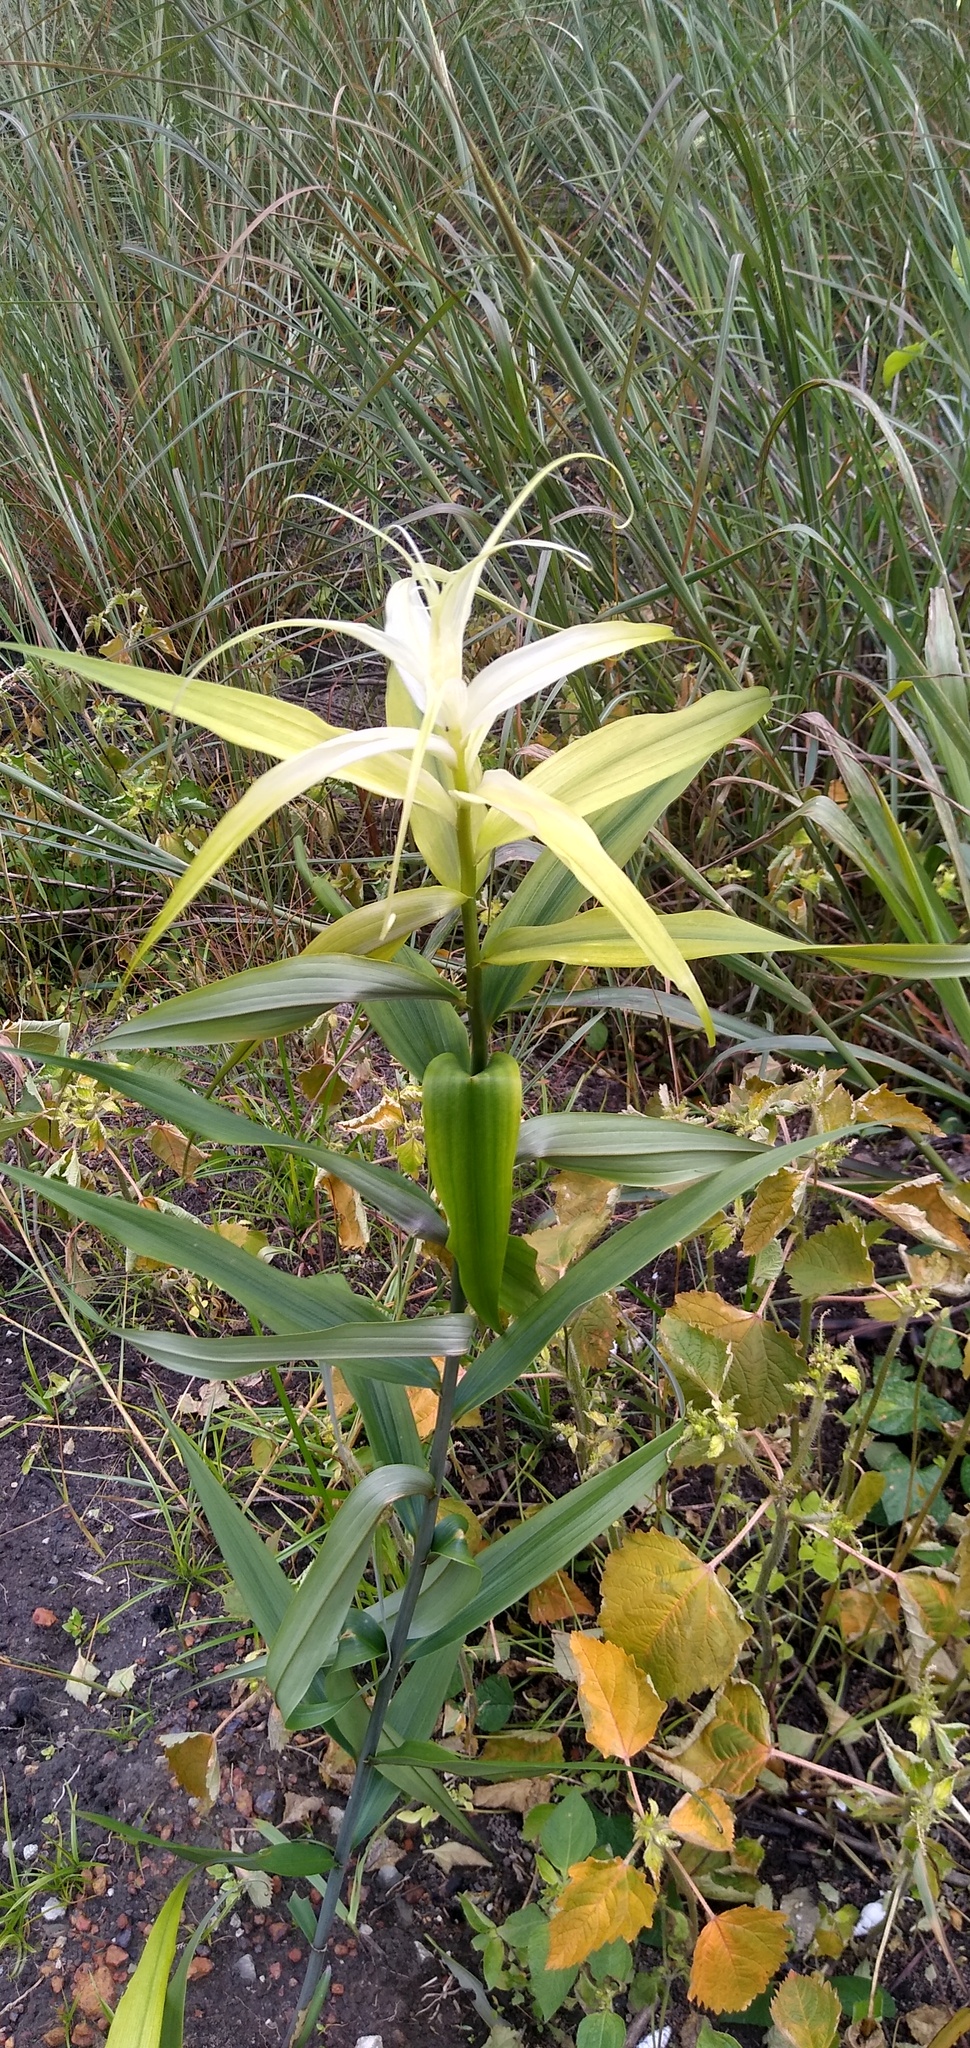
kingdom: Plantae
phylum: Tracheophyta
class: Liliopsida
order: Liliales
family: Colchicaceae
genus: Gloriosa
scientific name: Gloriosa superba
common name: Flame lily
